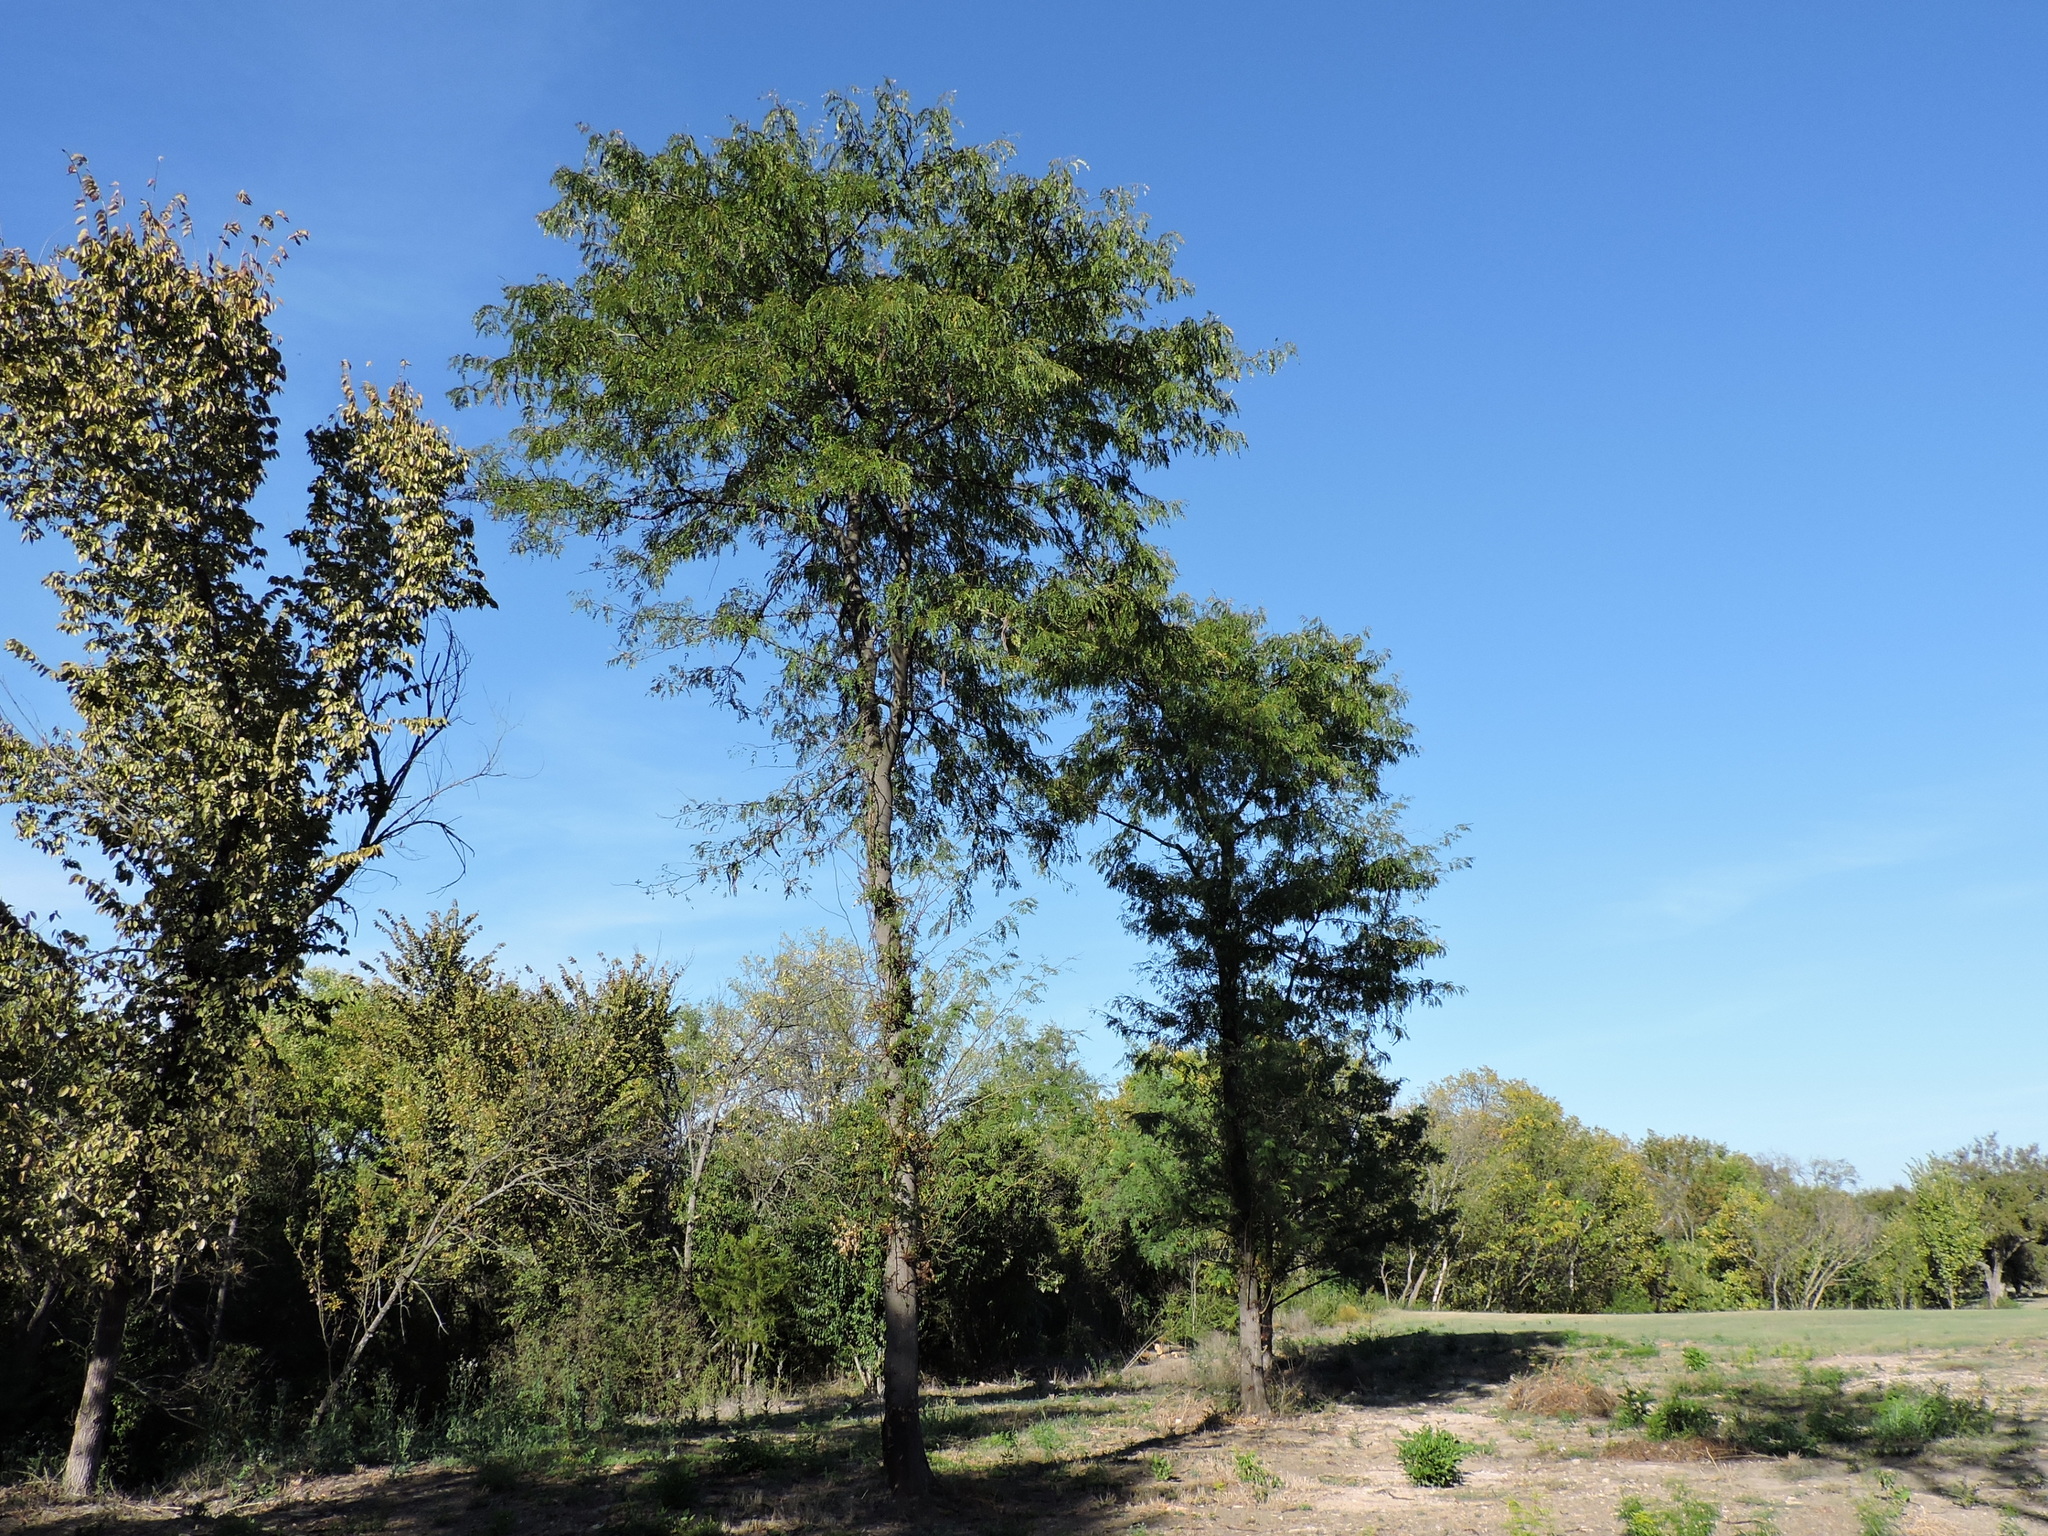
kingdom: Plantae
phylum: Tracheophyta
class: Magnoliopsida
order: Fabales
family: Fabaceae
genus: Gleditsia
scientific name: Gleditsia triacanthos
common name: Common honeylocust
